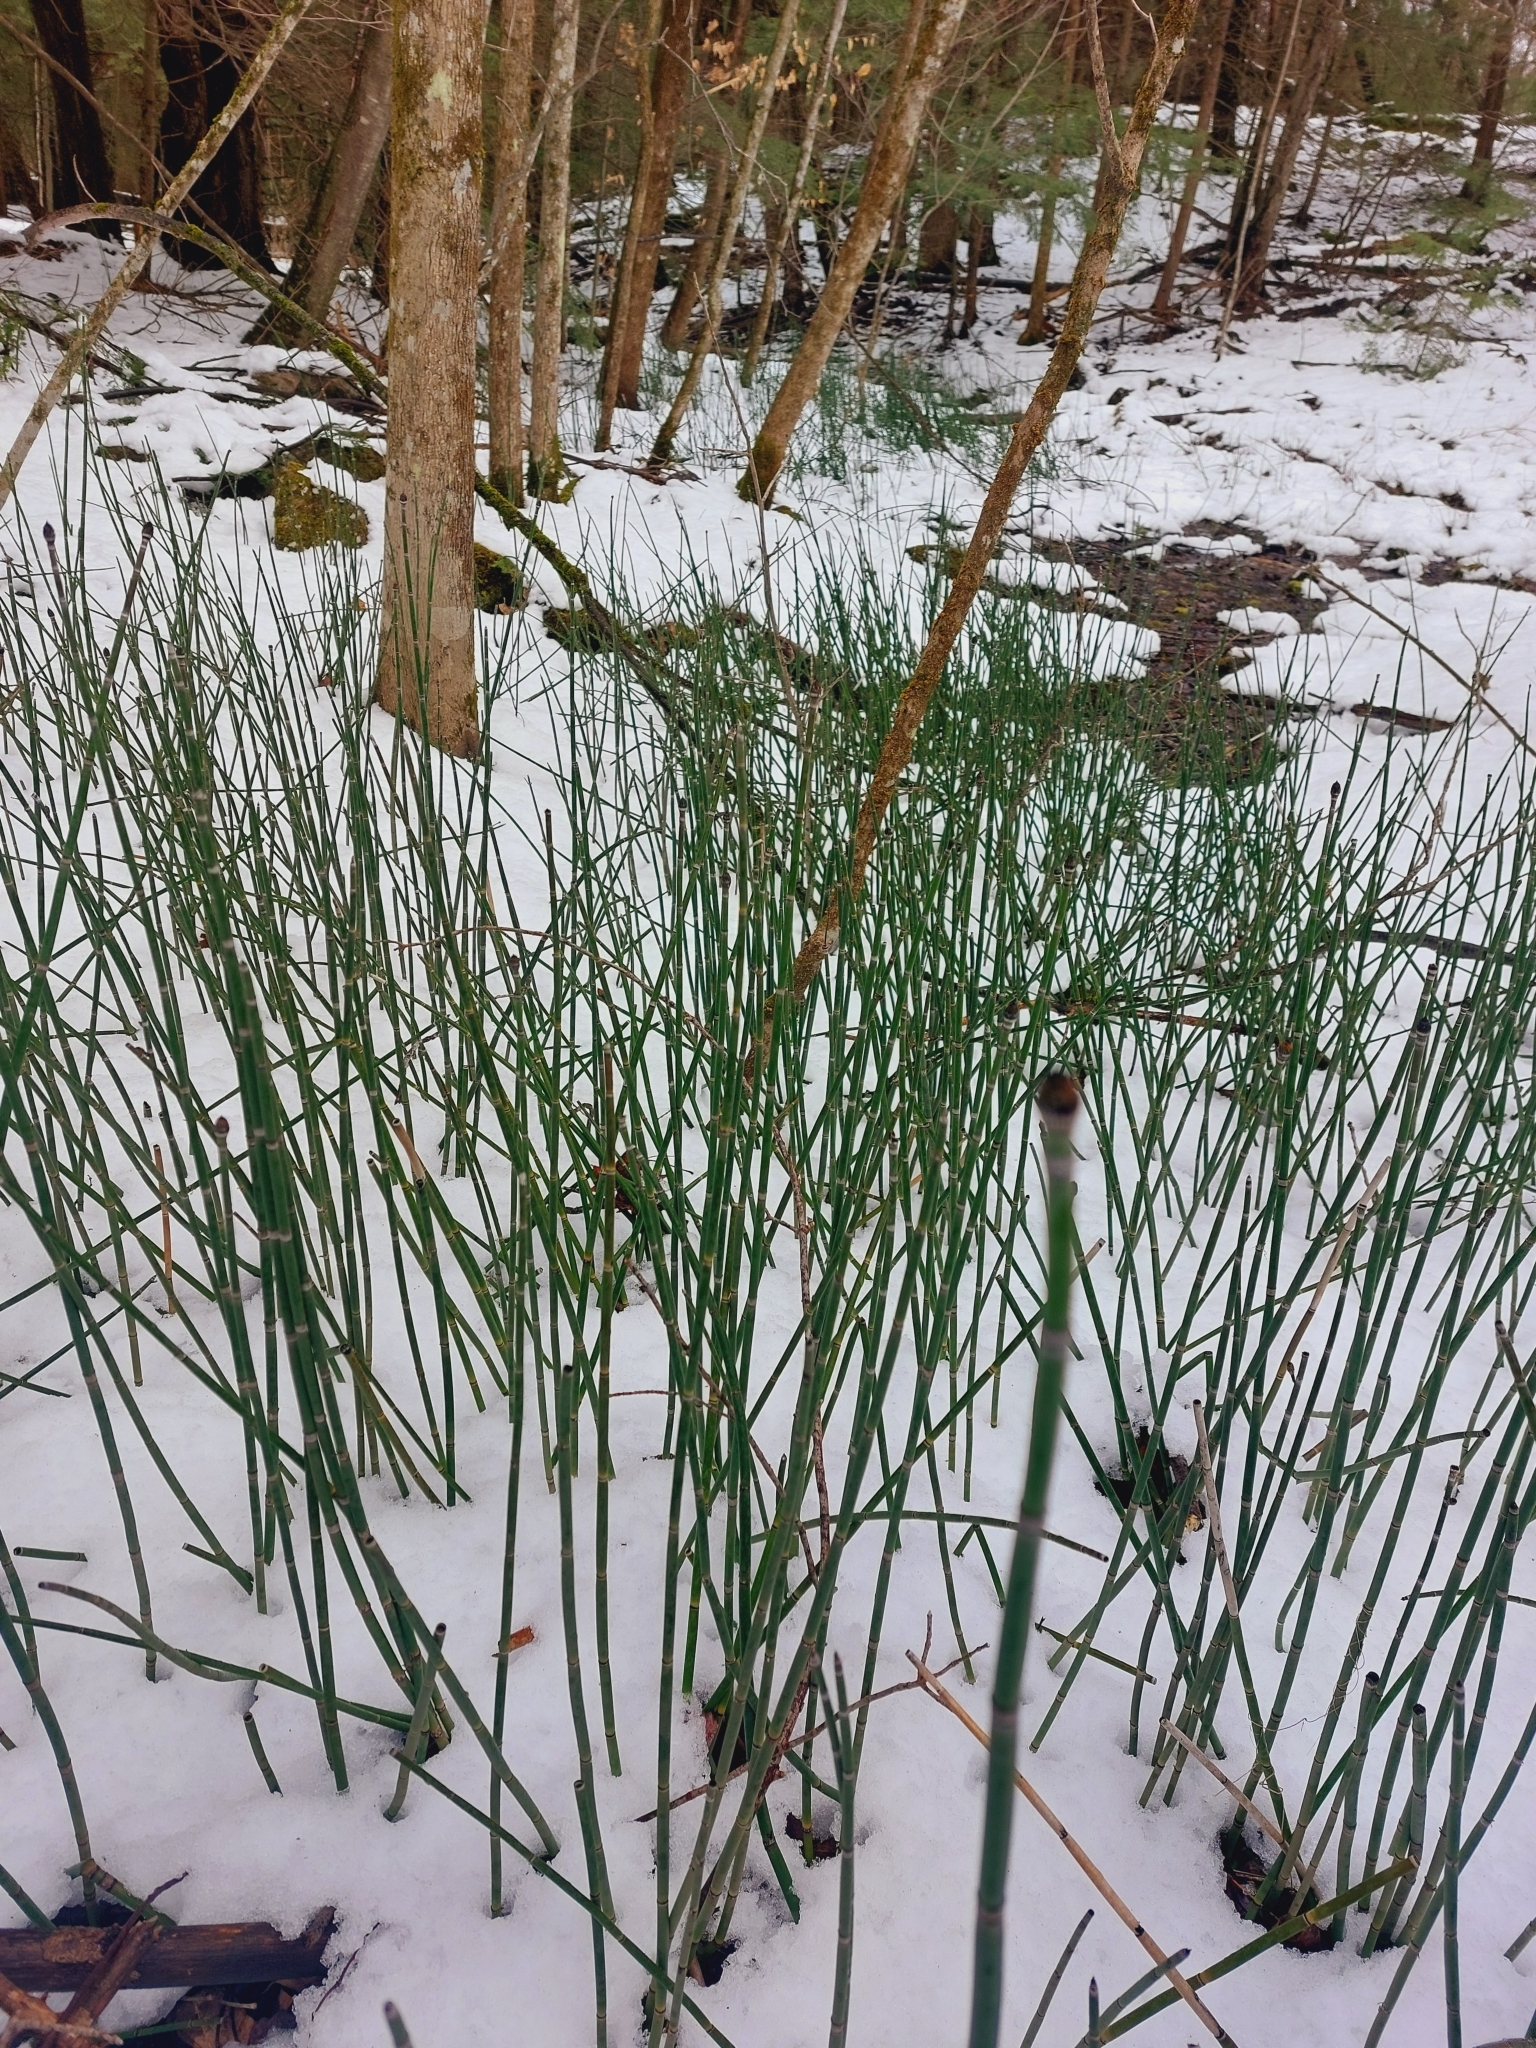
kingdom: Plantae
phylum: Tracheophyta
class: Polypodiopsida
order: Equisetales
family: Equisetaceae
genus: Equisetum
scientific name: Equisetum hyemale
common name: Rough horsetail
